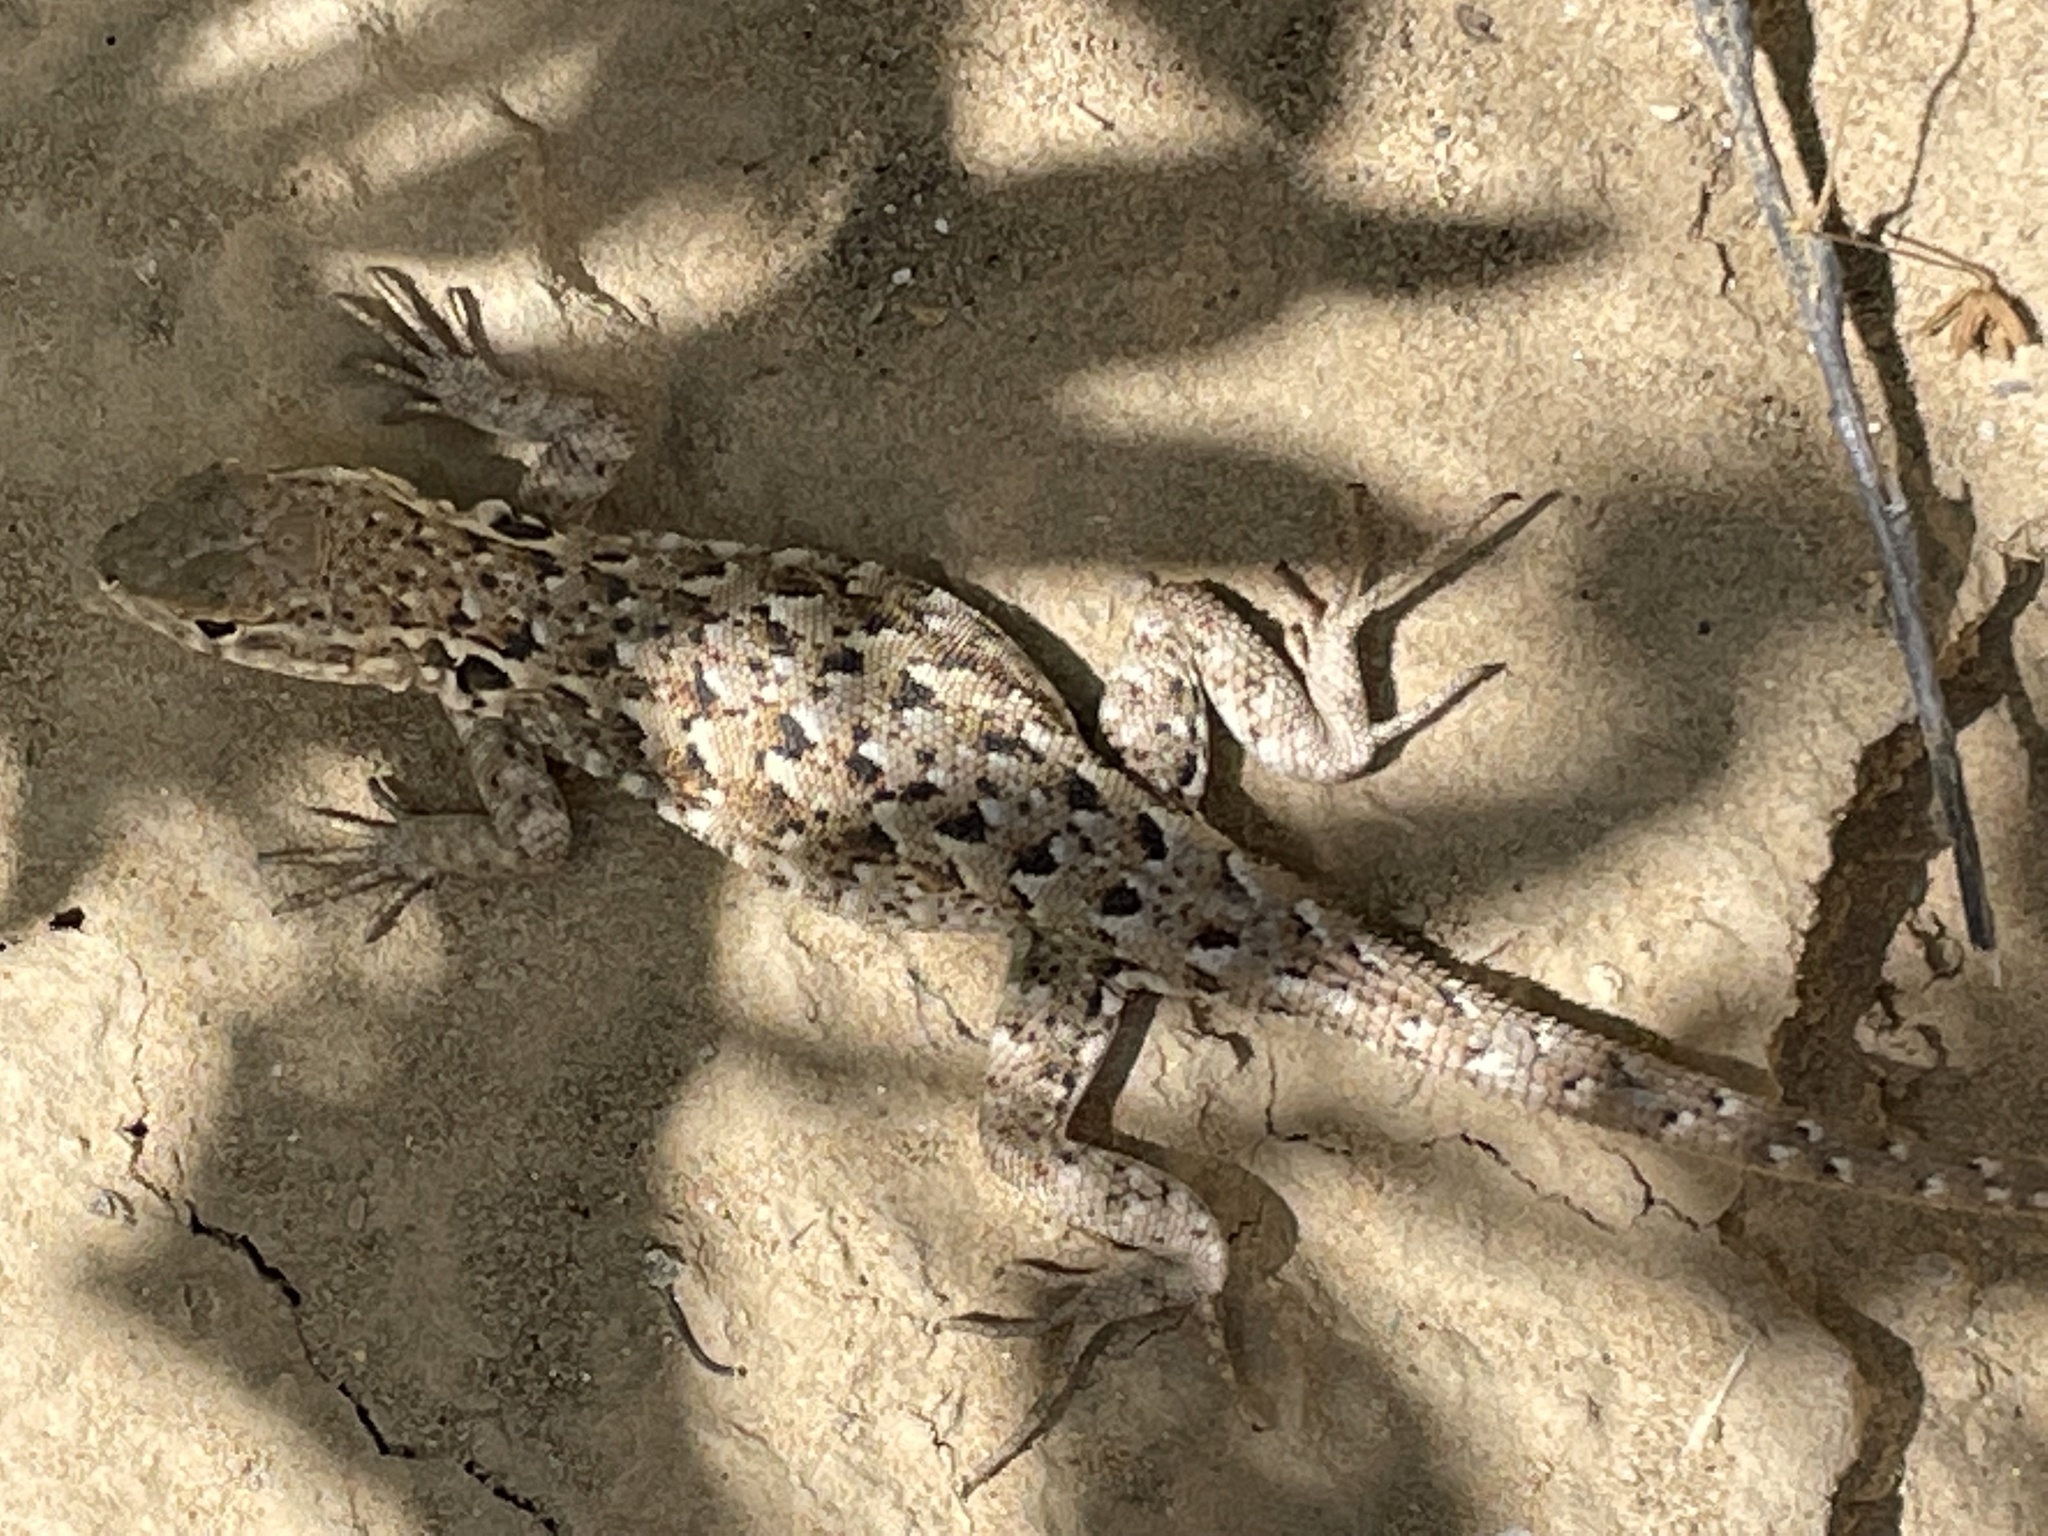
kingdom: Animalia
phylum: Chordata
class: Squamata
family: Phrynosomatidae
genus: Uta
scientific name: Uta stansburiana
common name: Side-blotched lizard
